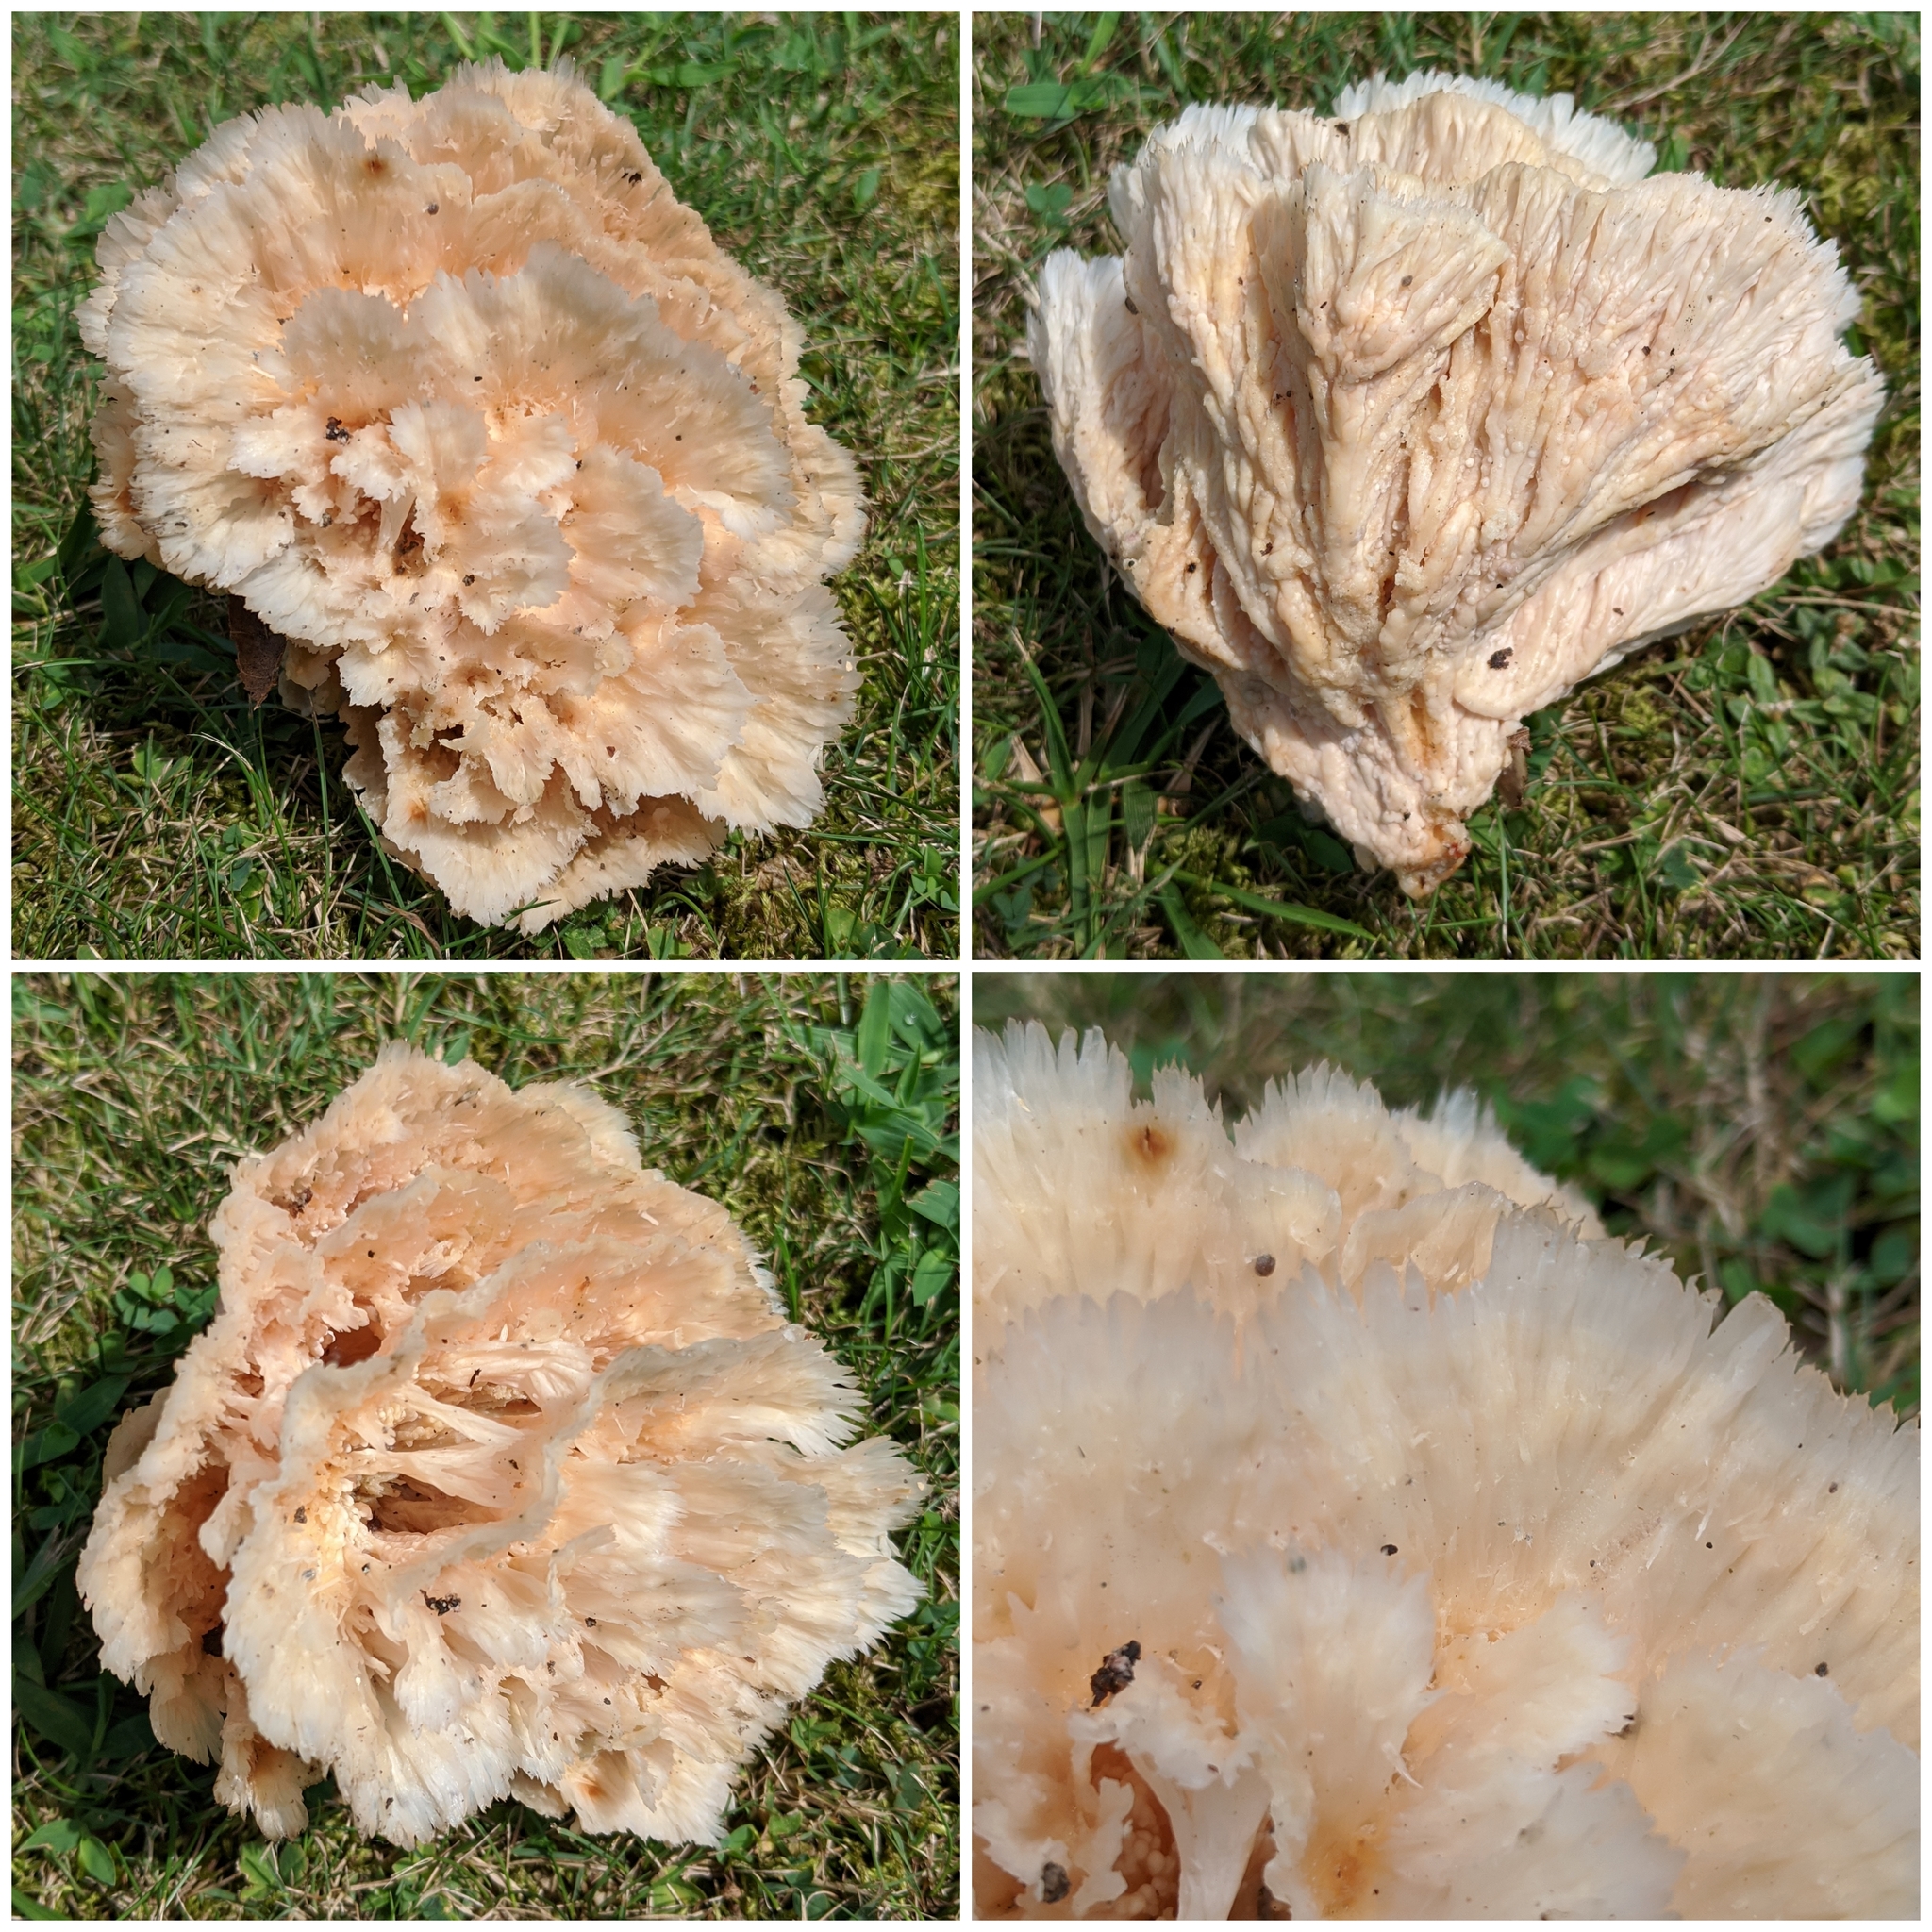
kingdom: Fungi
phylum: Basidiomycota
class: Agaricomycetes
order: Polyporales
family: Podoscyphaceae
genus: Podoscypha
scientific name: Podoscypha aculeata
